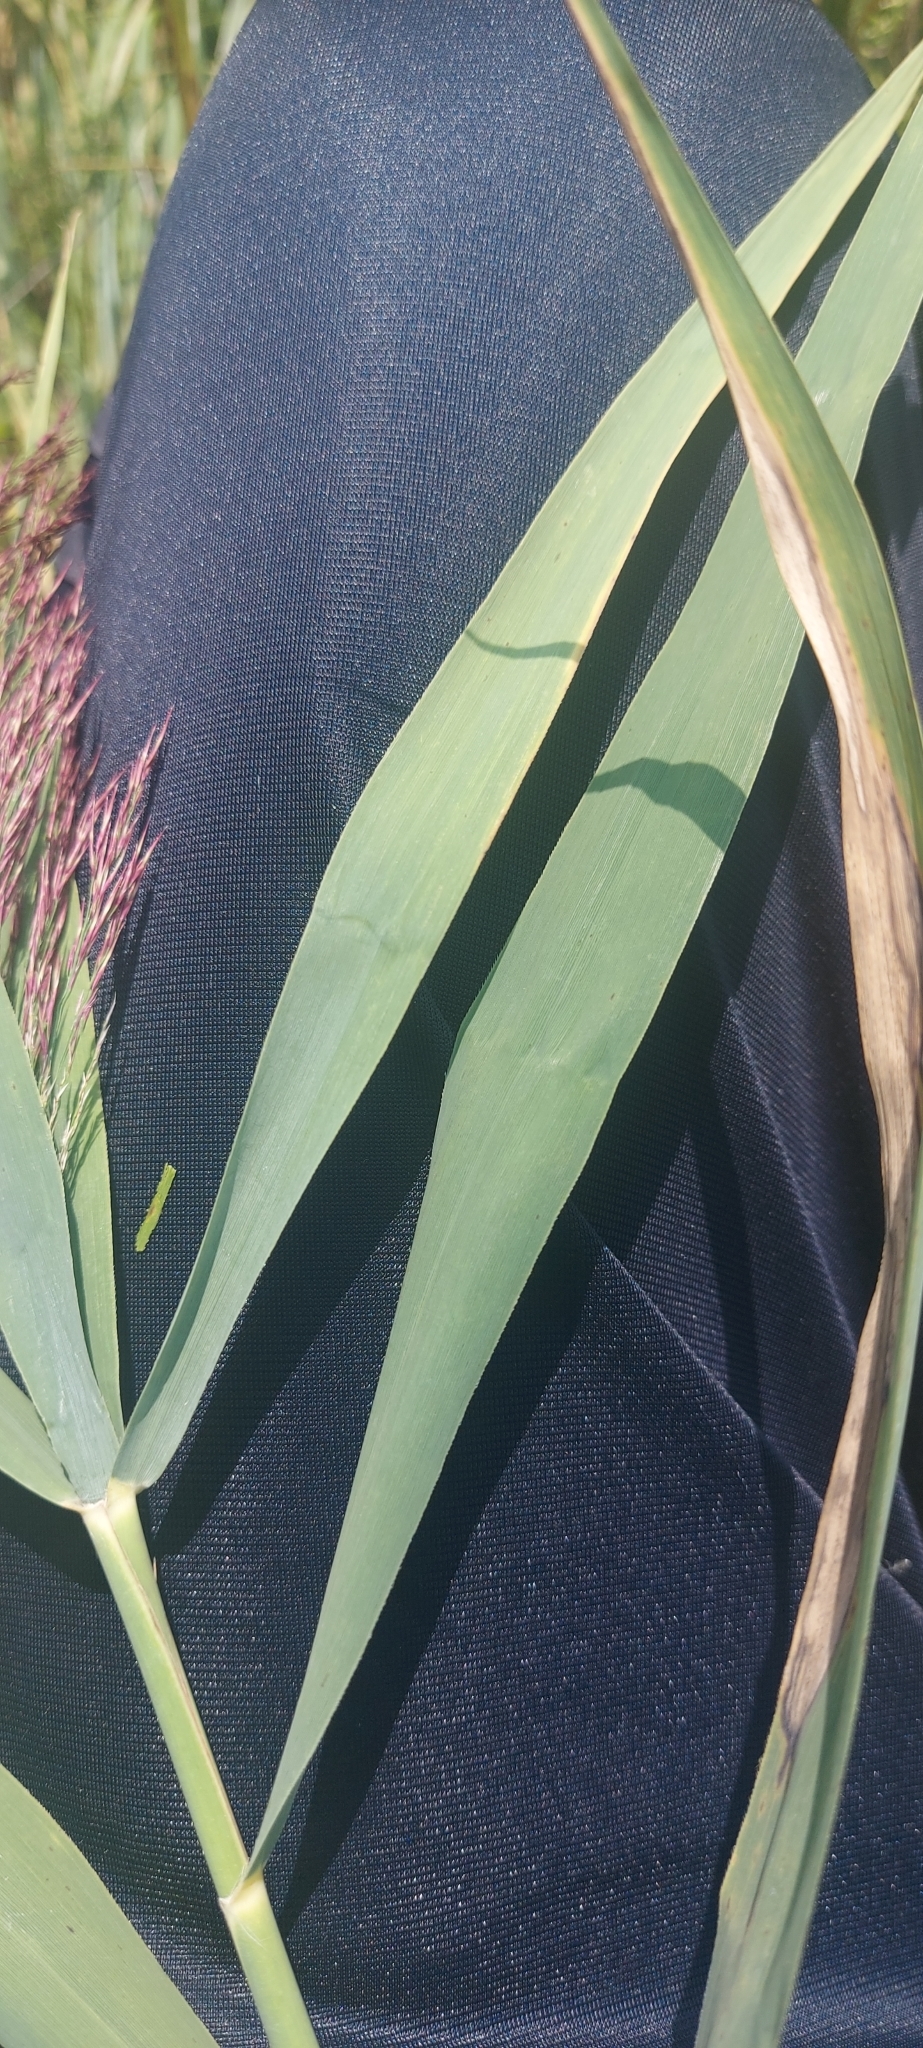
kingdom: Plantae
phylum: Tracheophyta
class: Liliopsida
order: Poales
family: Poaceae
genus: Phragmites
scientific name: Phragmites australis
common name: Common reed
